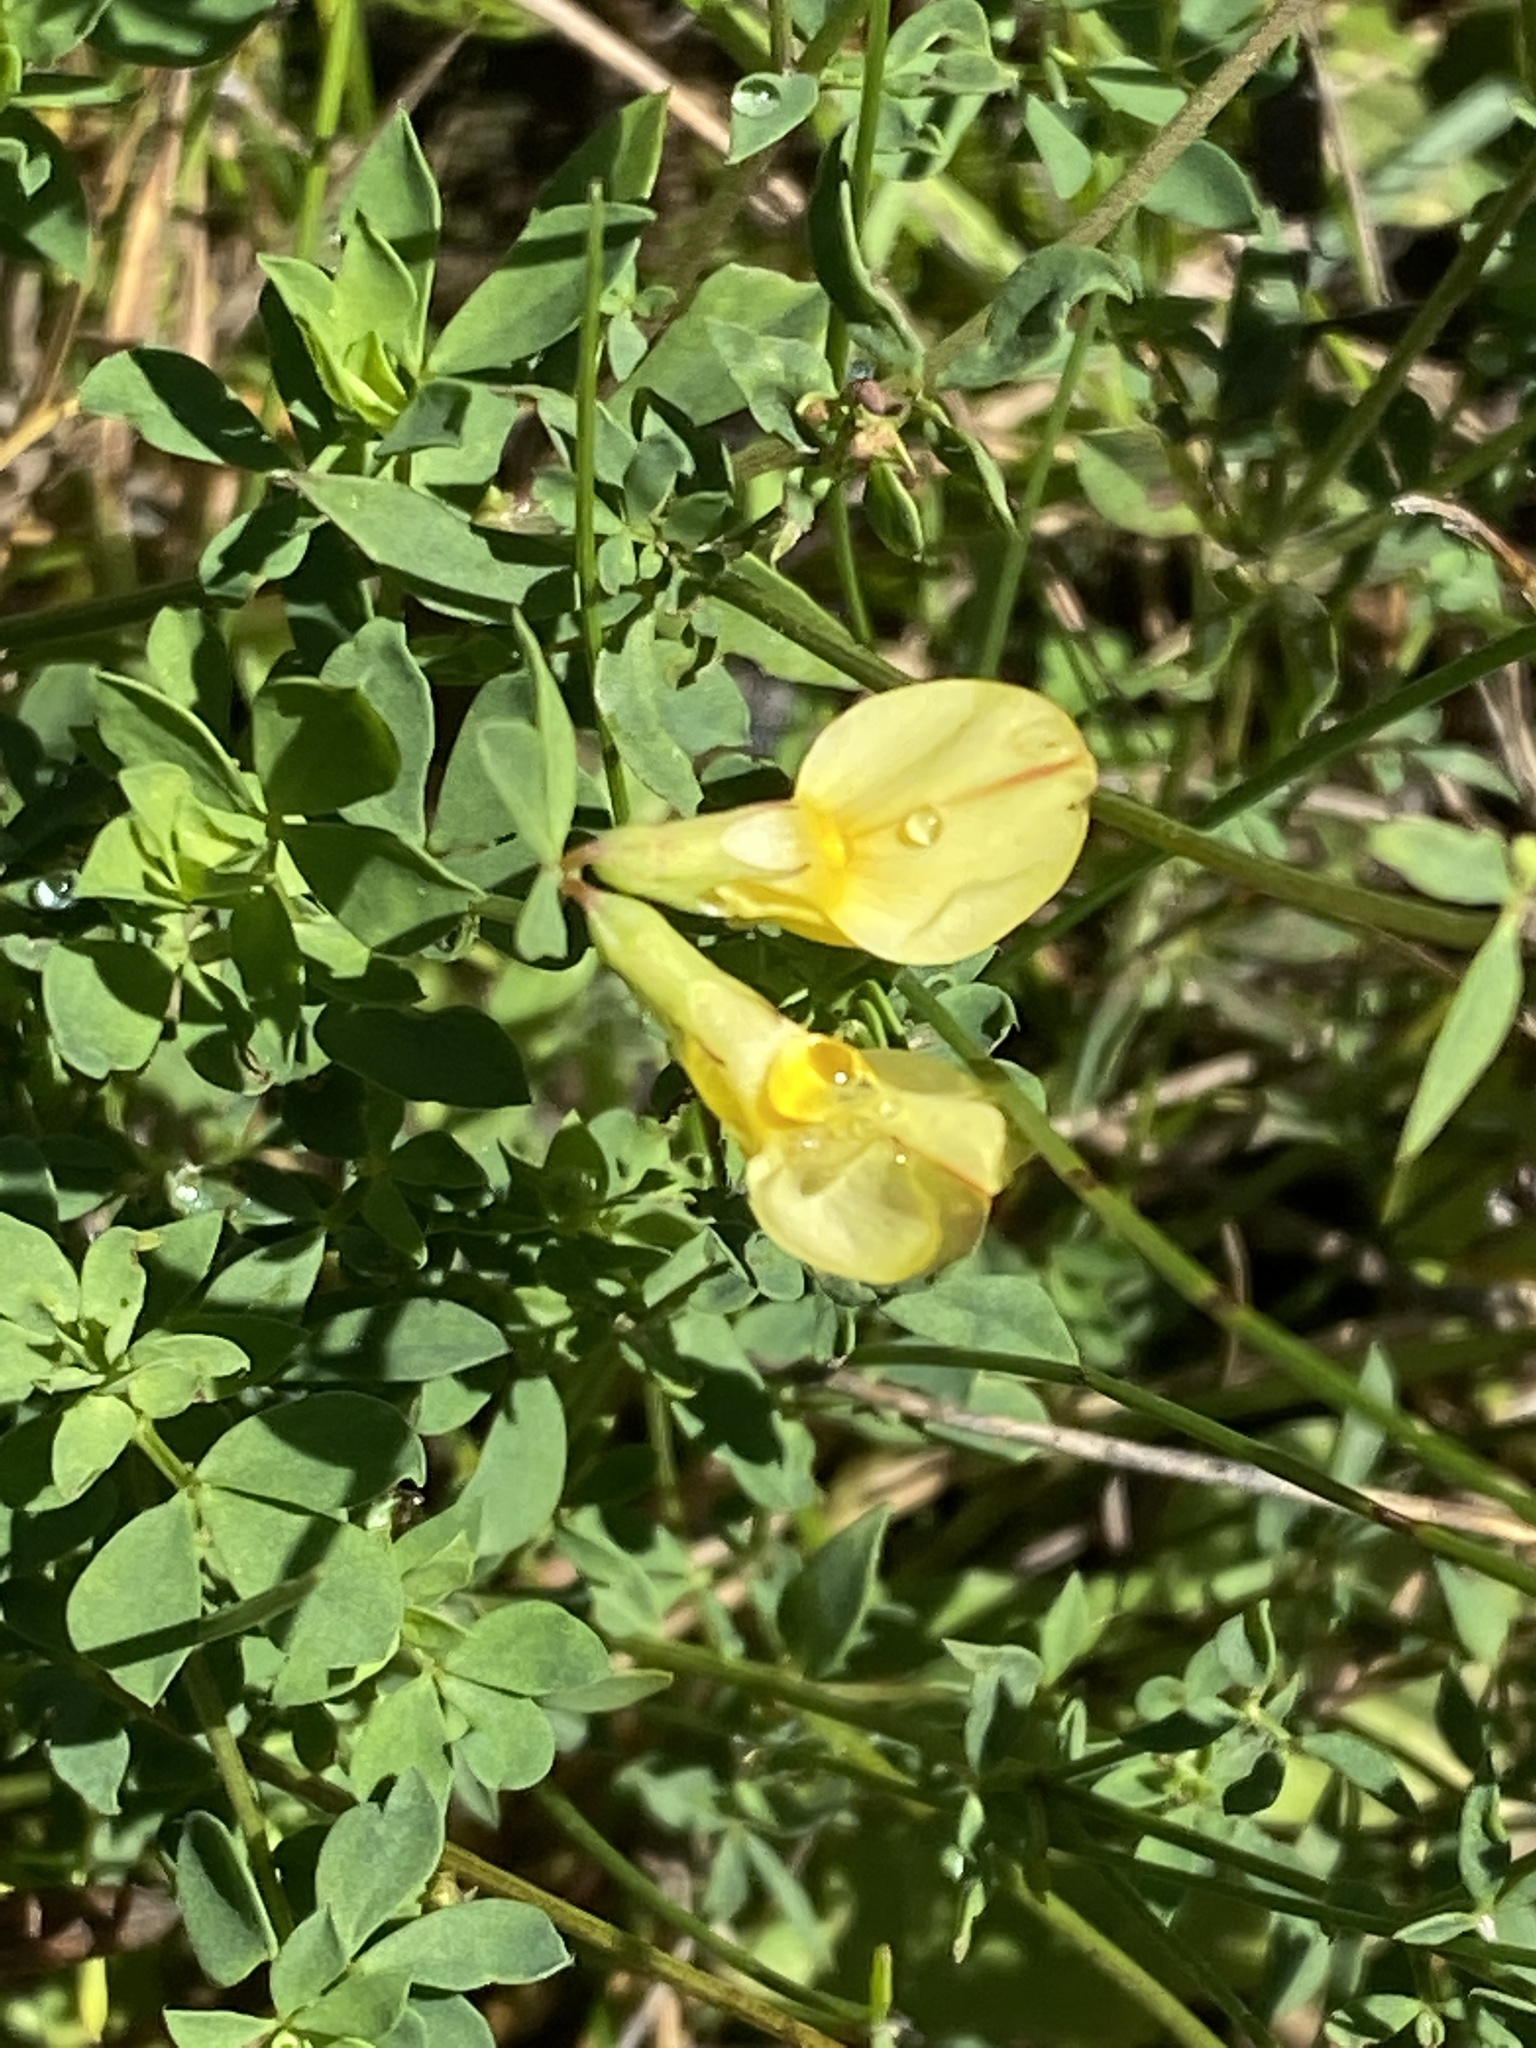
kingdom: Plantae
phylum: Tracheophyta
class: Magnoliopsida
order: Fabales
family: Fabaceae
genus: Lotus
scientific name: Lotus corniculatus
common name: Common bird's-foot-trefoil
